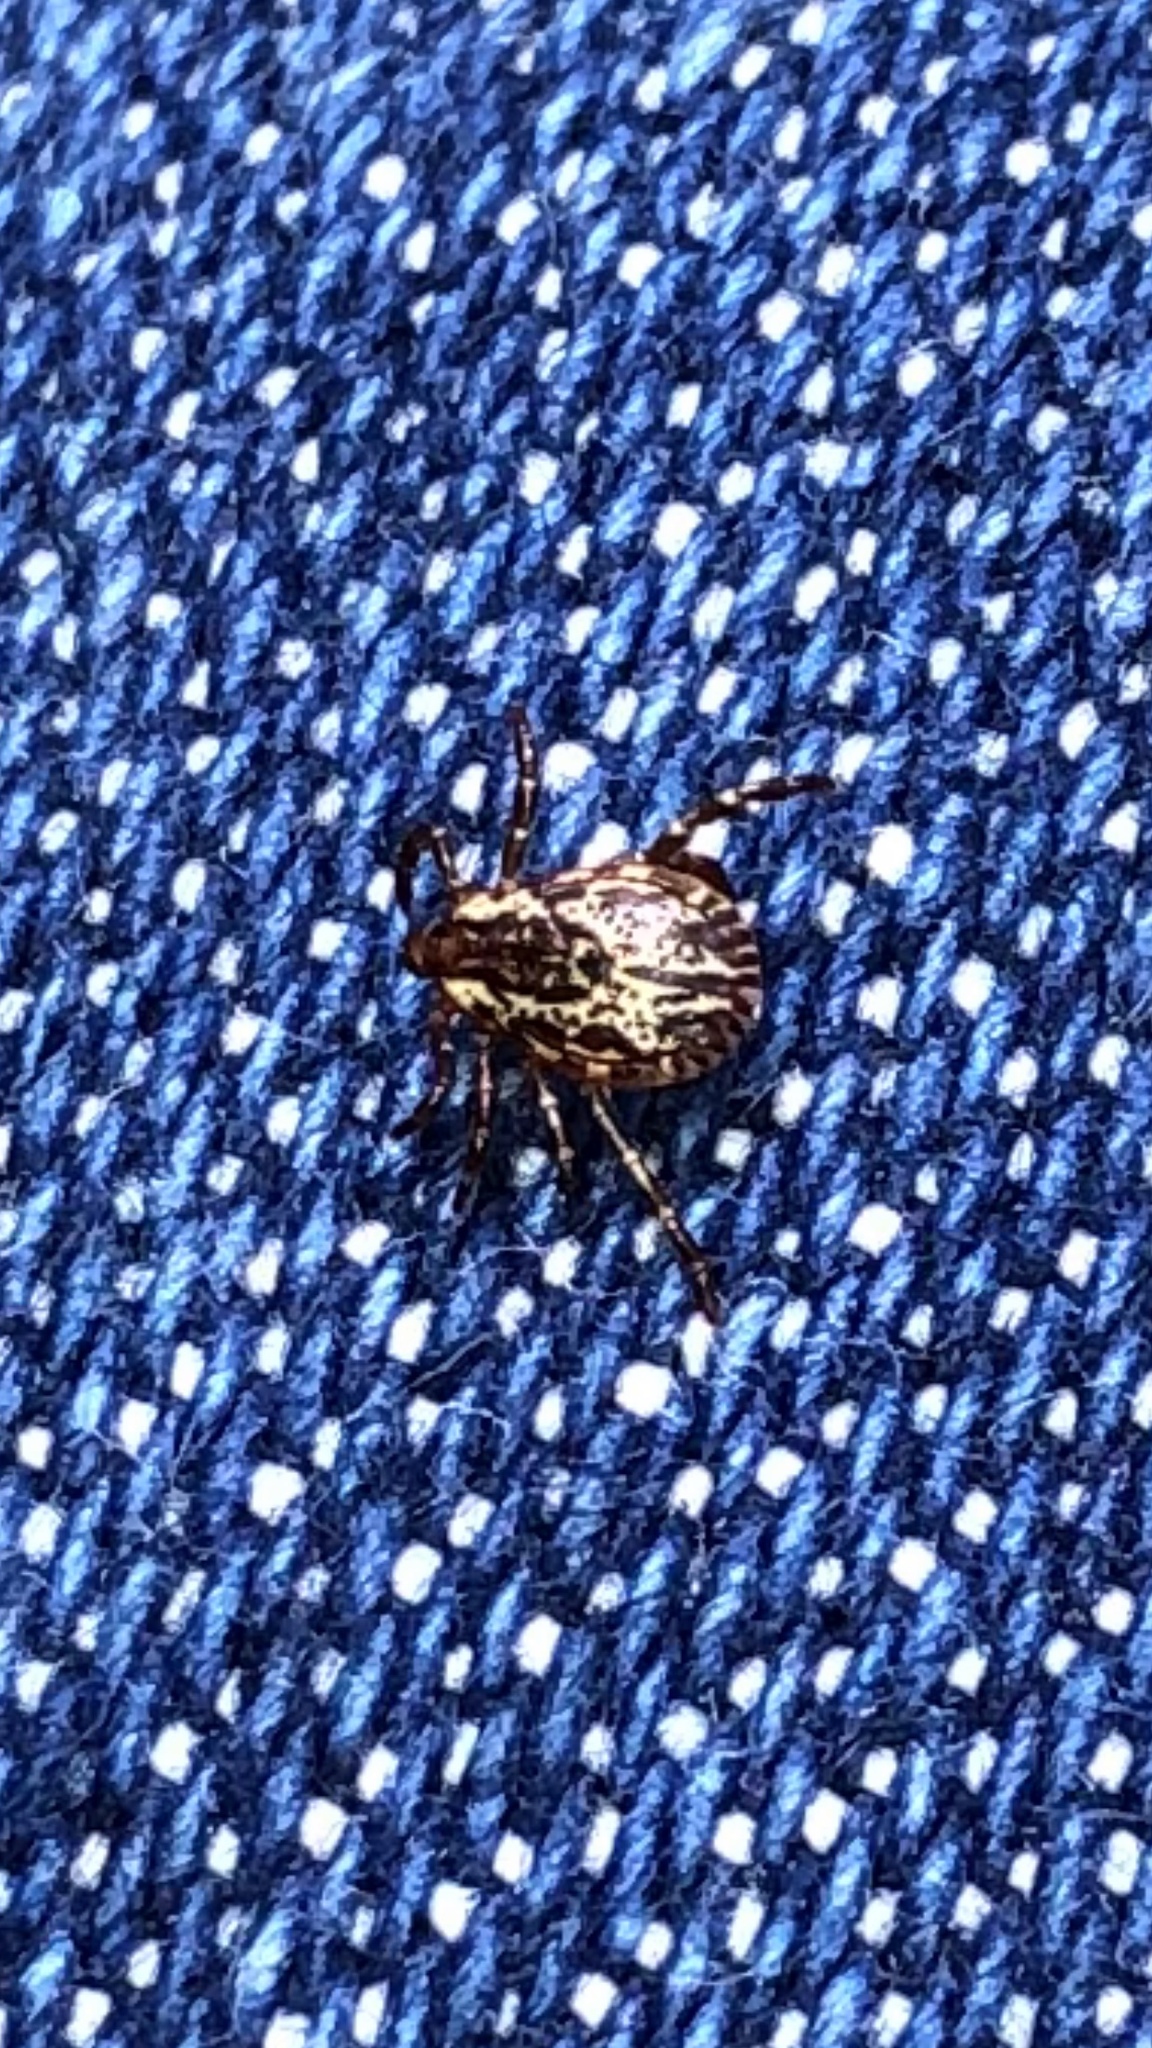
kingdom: Animalia
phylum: Arthropoda
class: Arachnida
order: Ixodida
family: Ixodidae
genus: Dermacentor
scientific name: Dermacentor variabilis
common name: American dog tick
